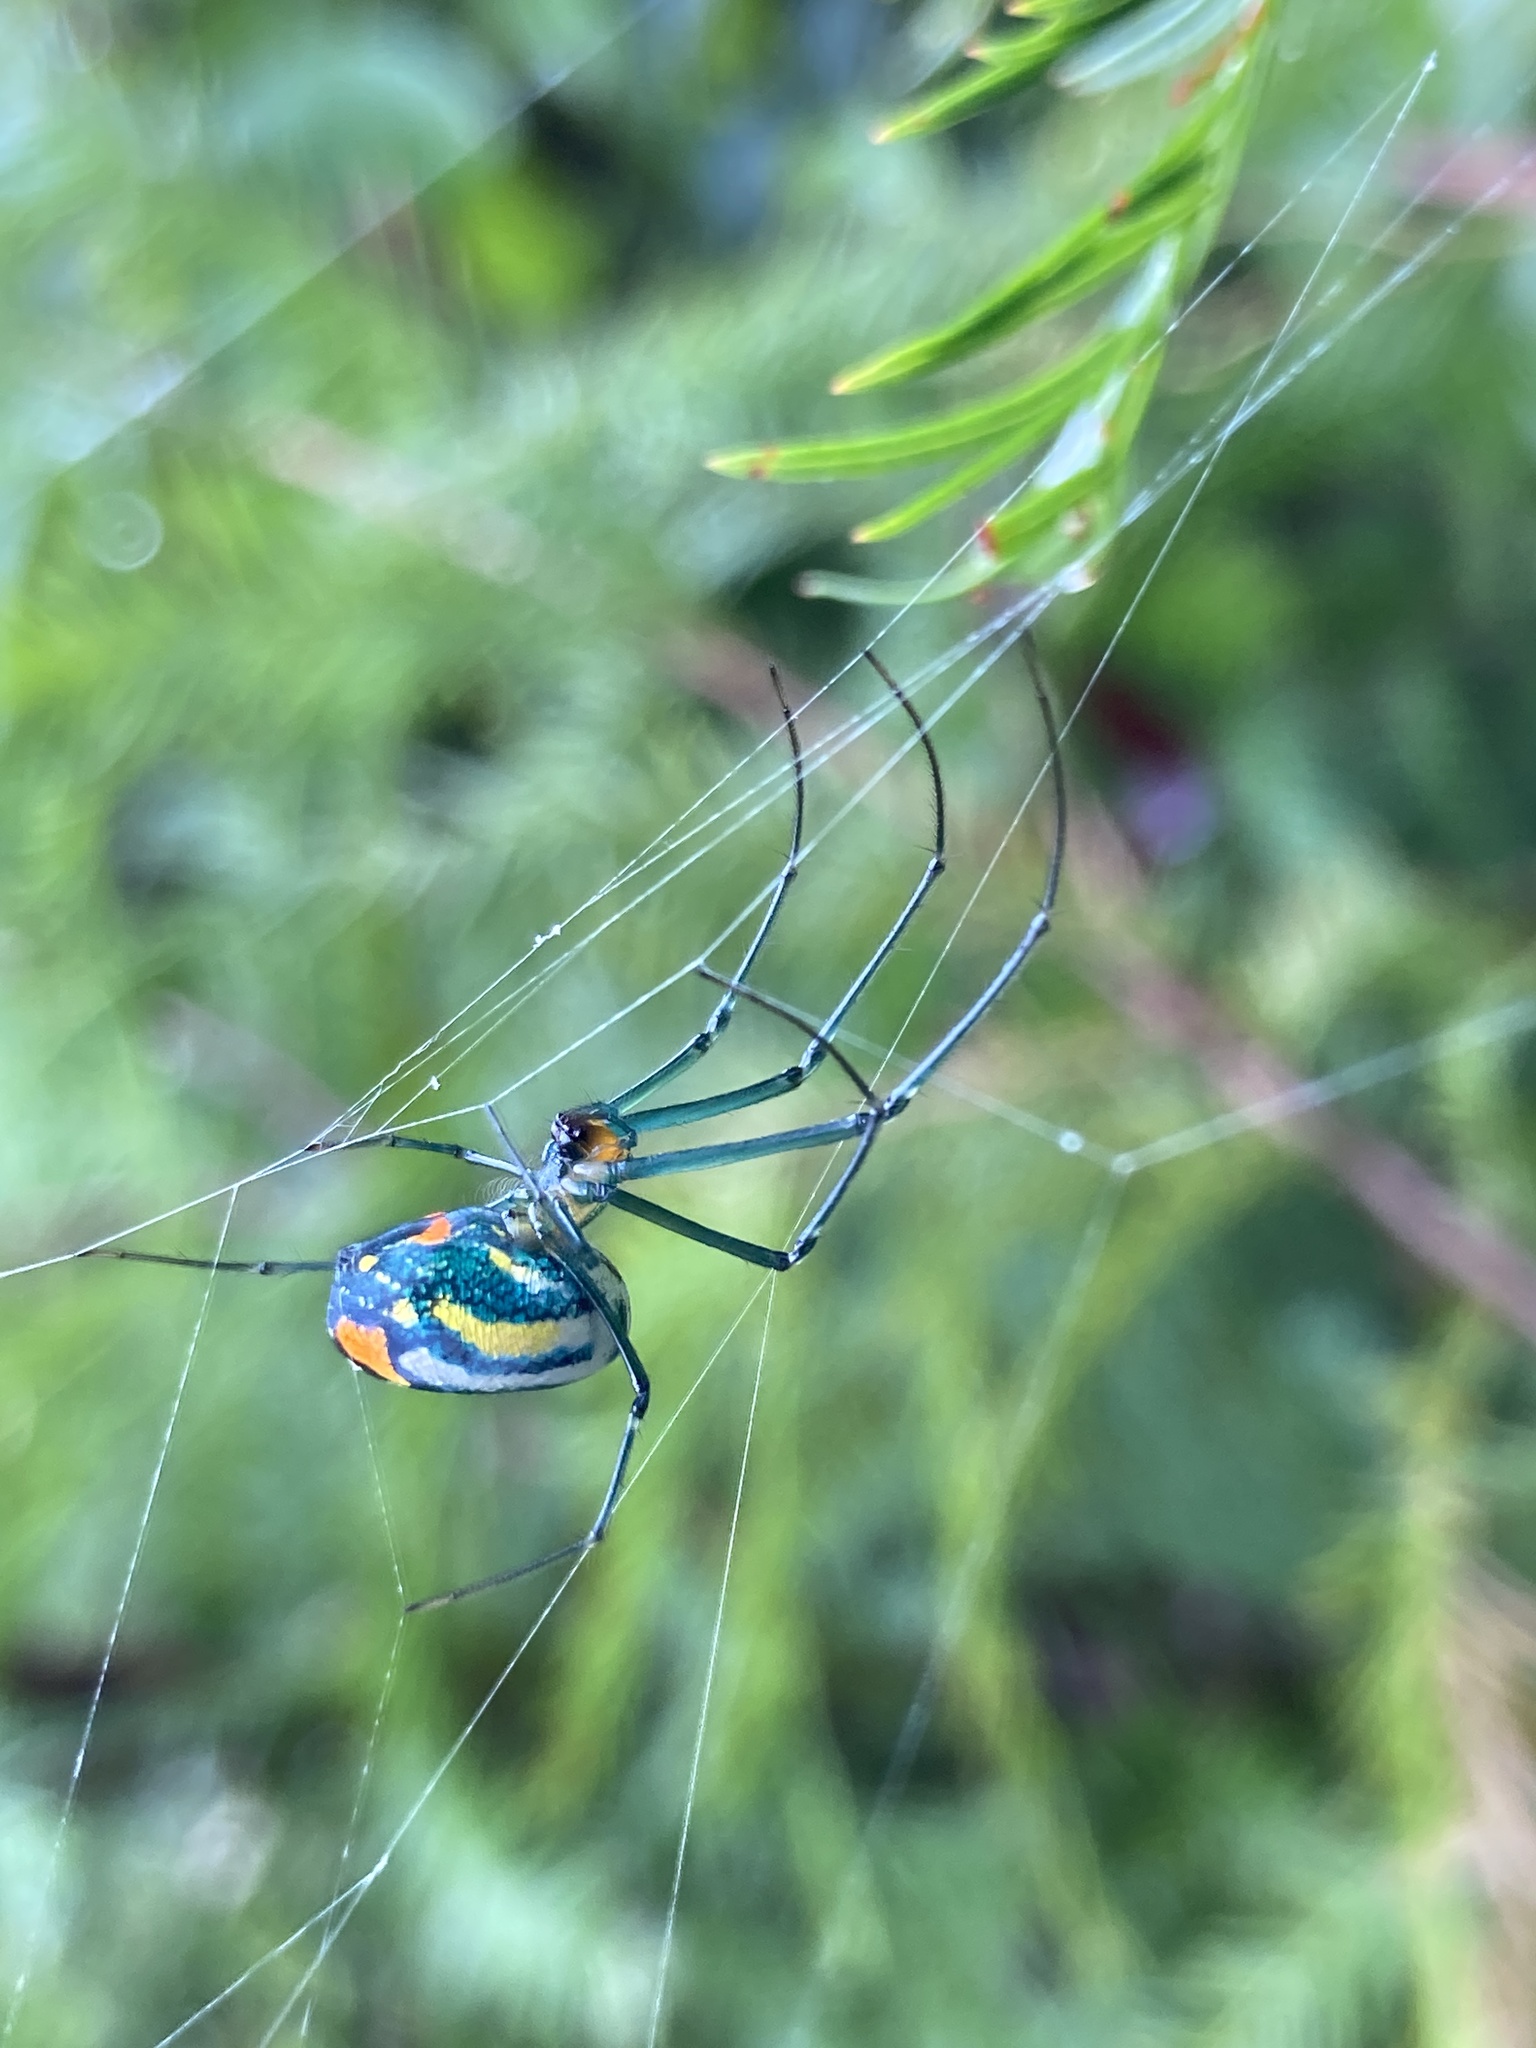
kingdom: Animalia
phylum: Arthropoda
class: Arachnida
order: Araneae
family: Tetragnathidae
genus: Leucauge
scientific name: Leucauge argyrobapta
